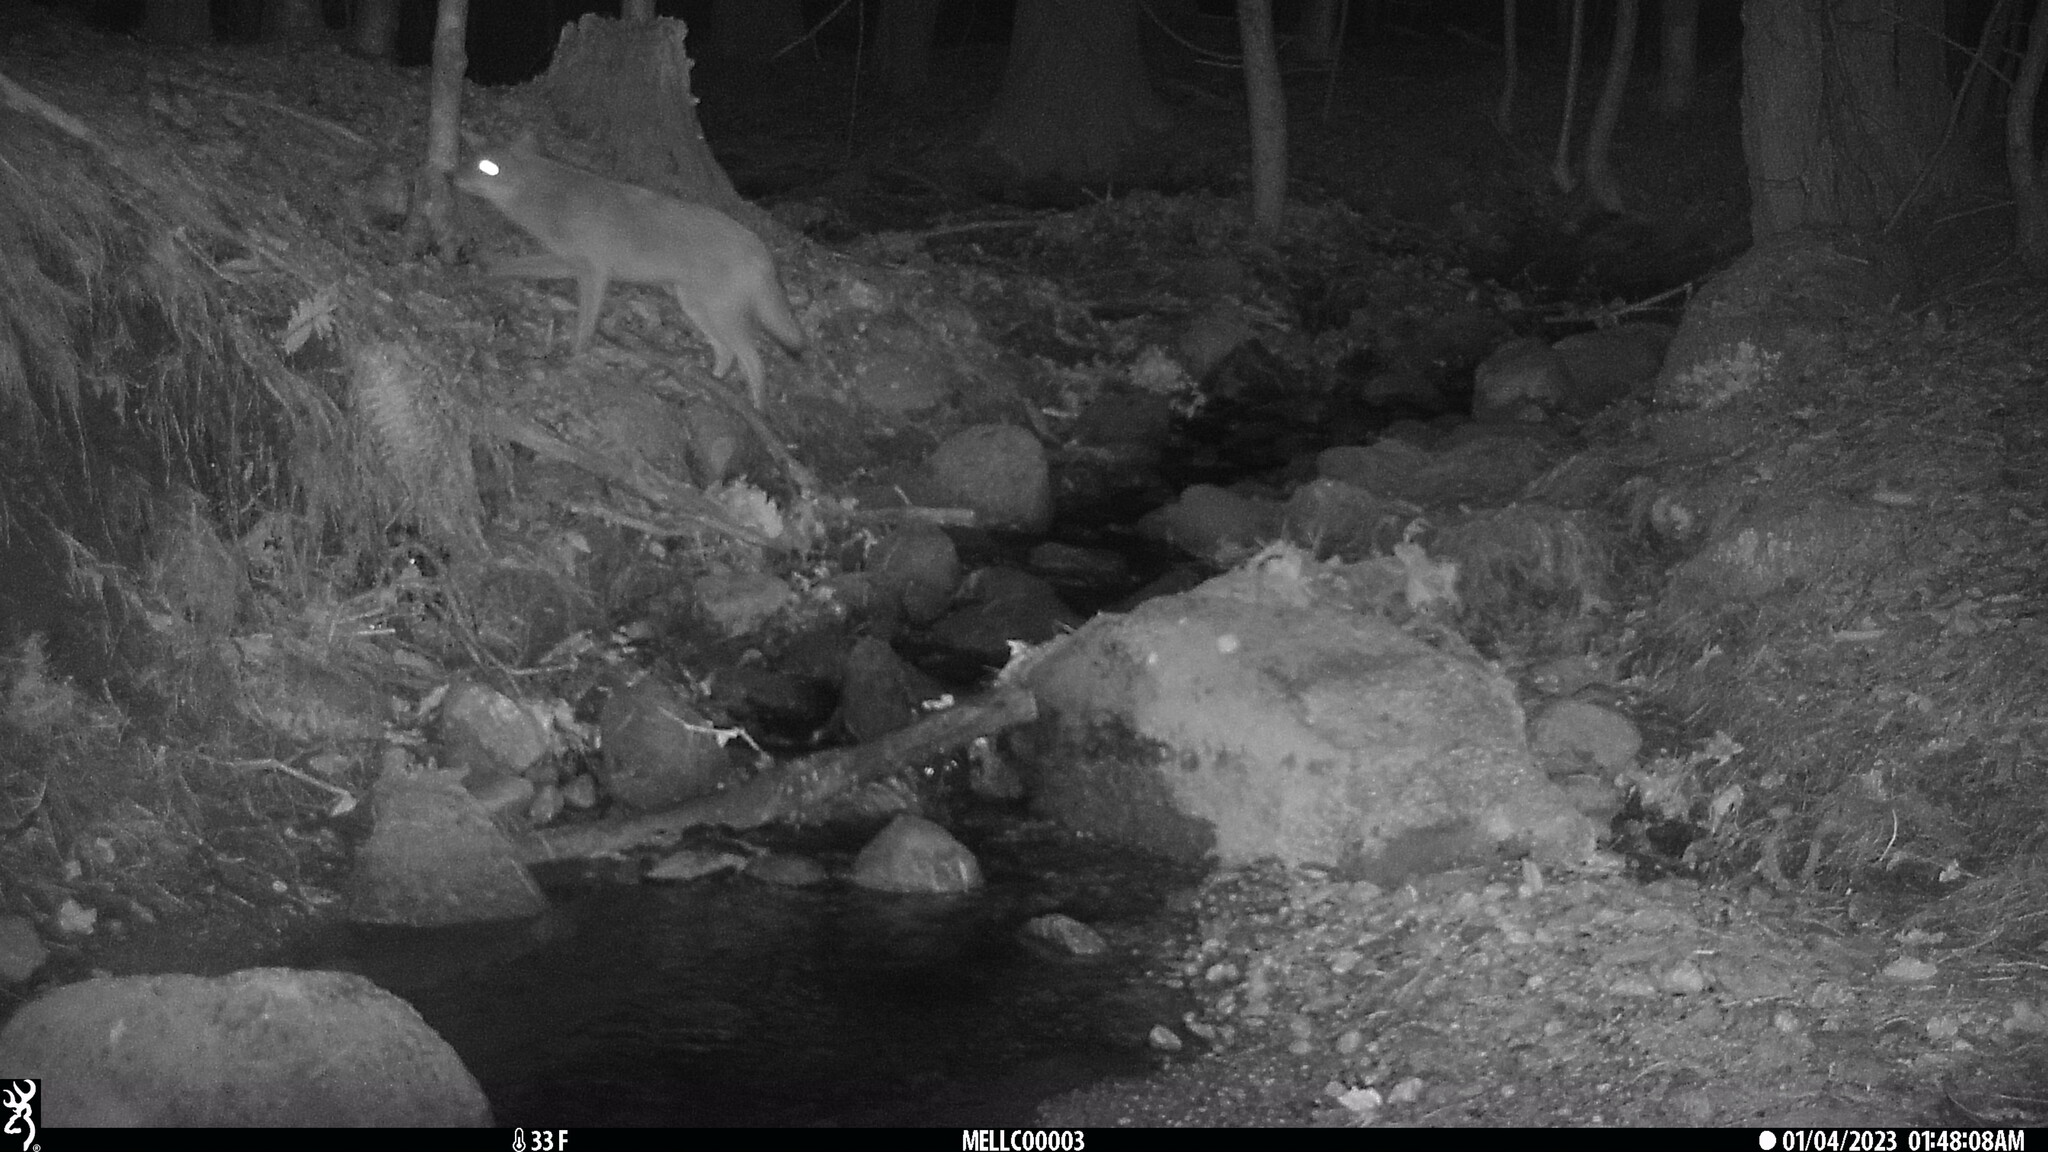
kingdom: Animalia
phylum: Chordata
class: Mammalia
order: Carnivora
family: Canidae
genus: Canis
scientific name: Canis latrans
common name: Coyote
